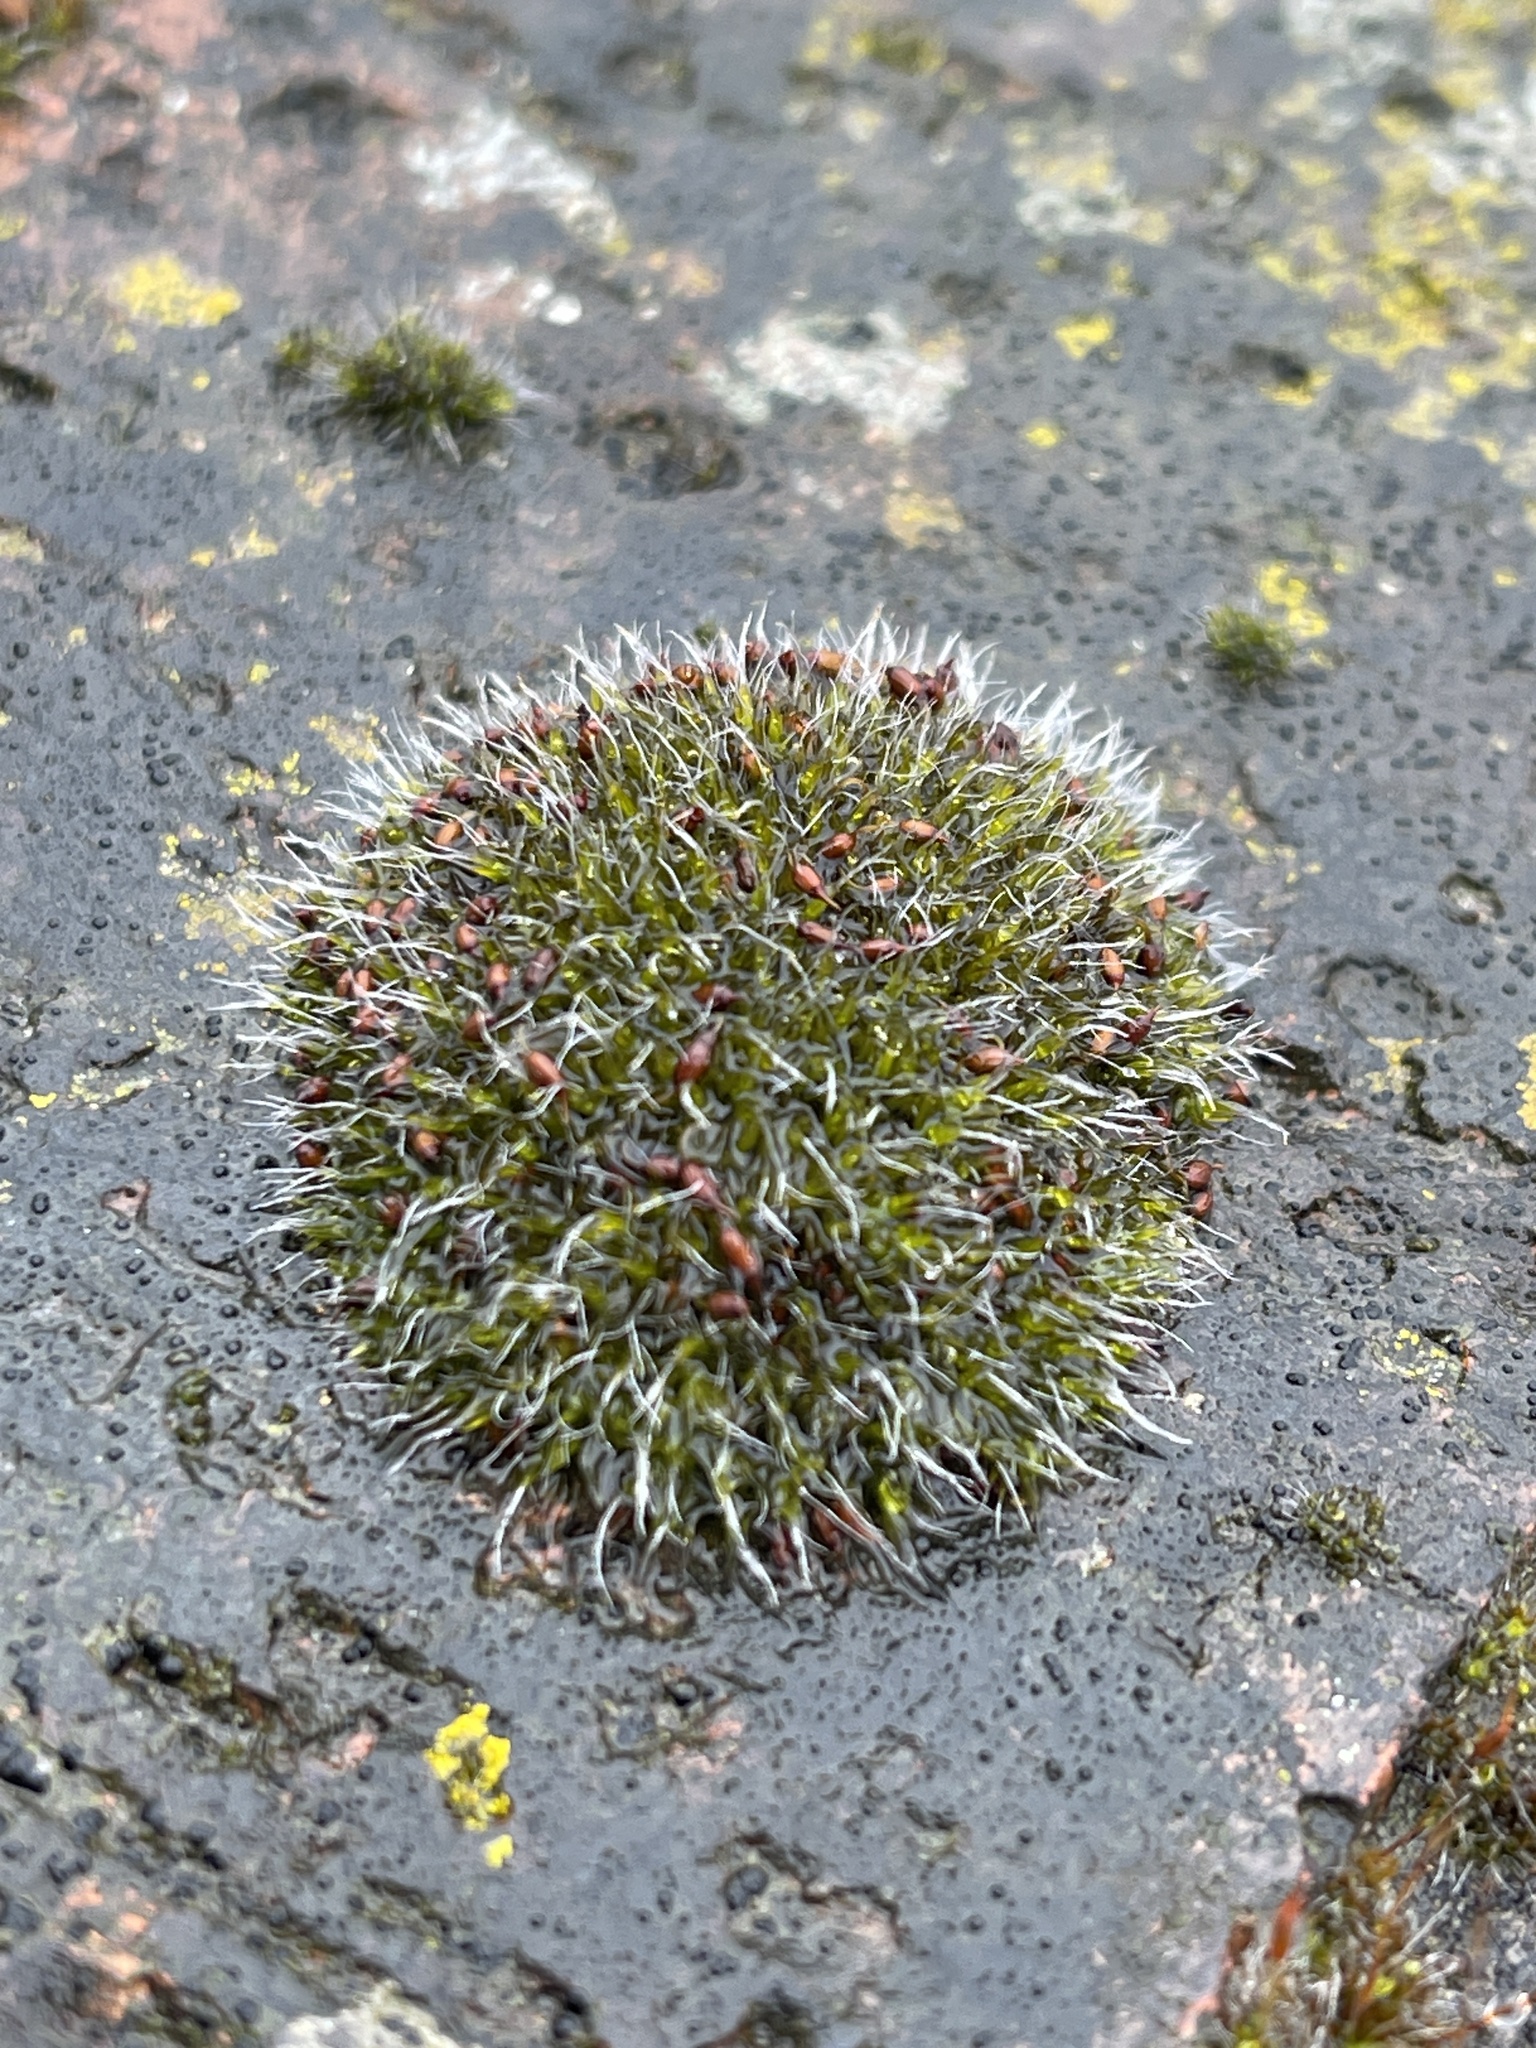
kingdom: Plantae
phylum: Bryophyta
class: Bryopsida
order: Grimmiales
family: Grimmiaceae
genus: Grimmia
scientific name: Grimmia pulvinata
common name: Grey-cushioned grimmia
